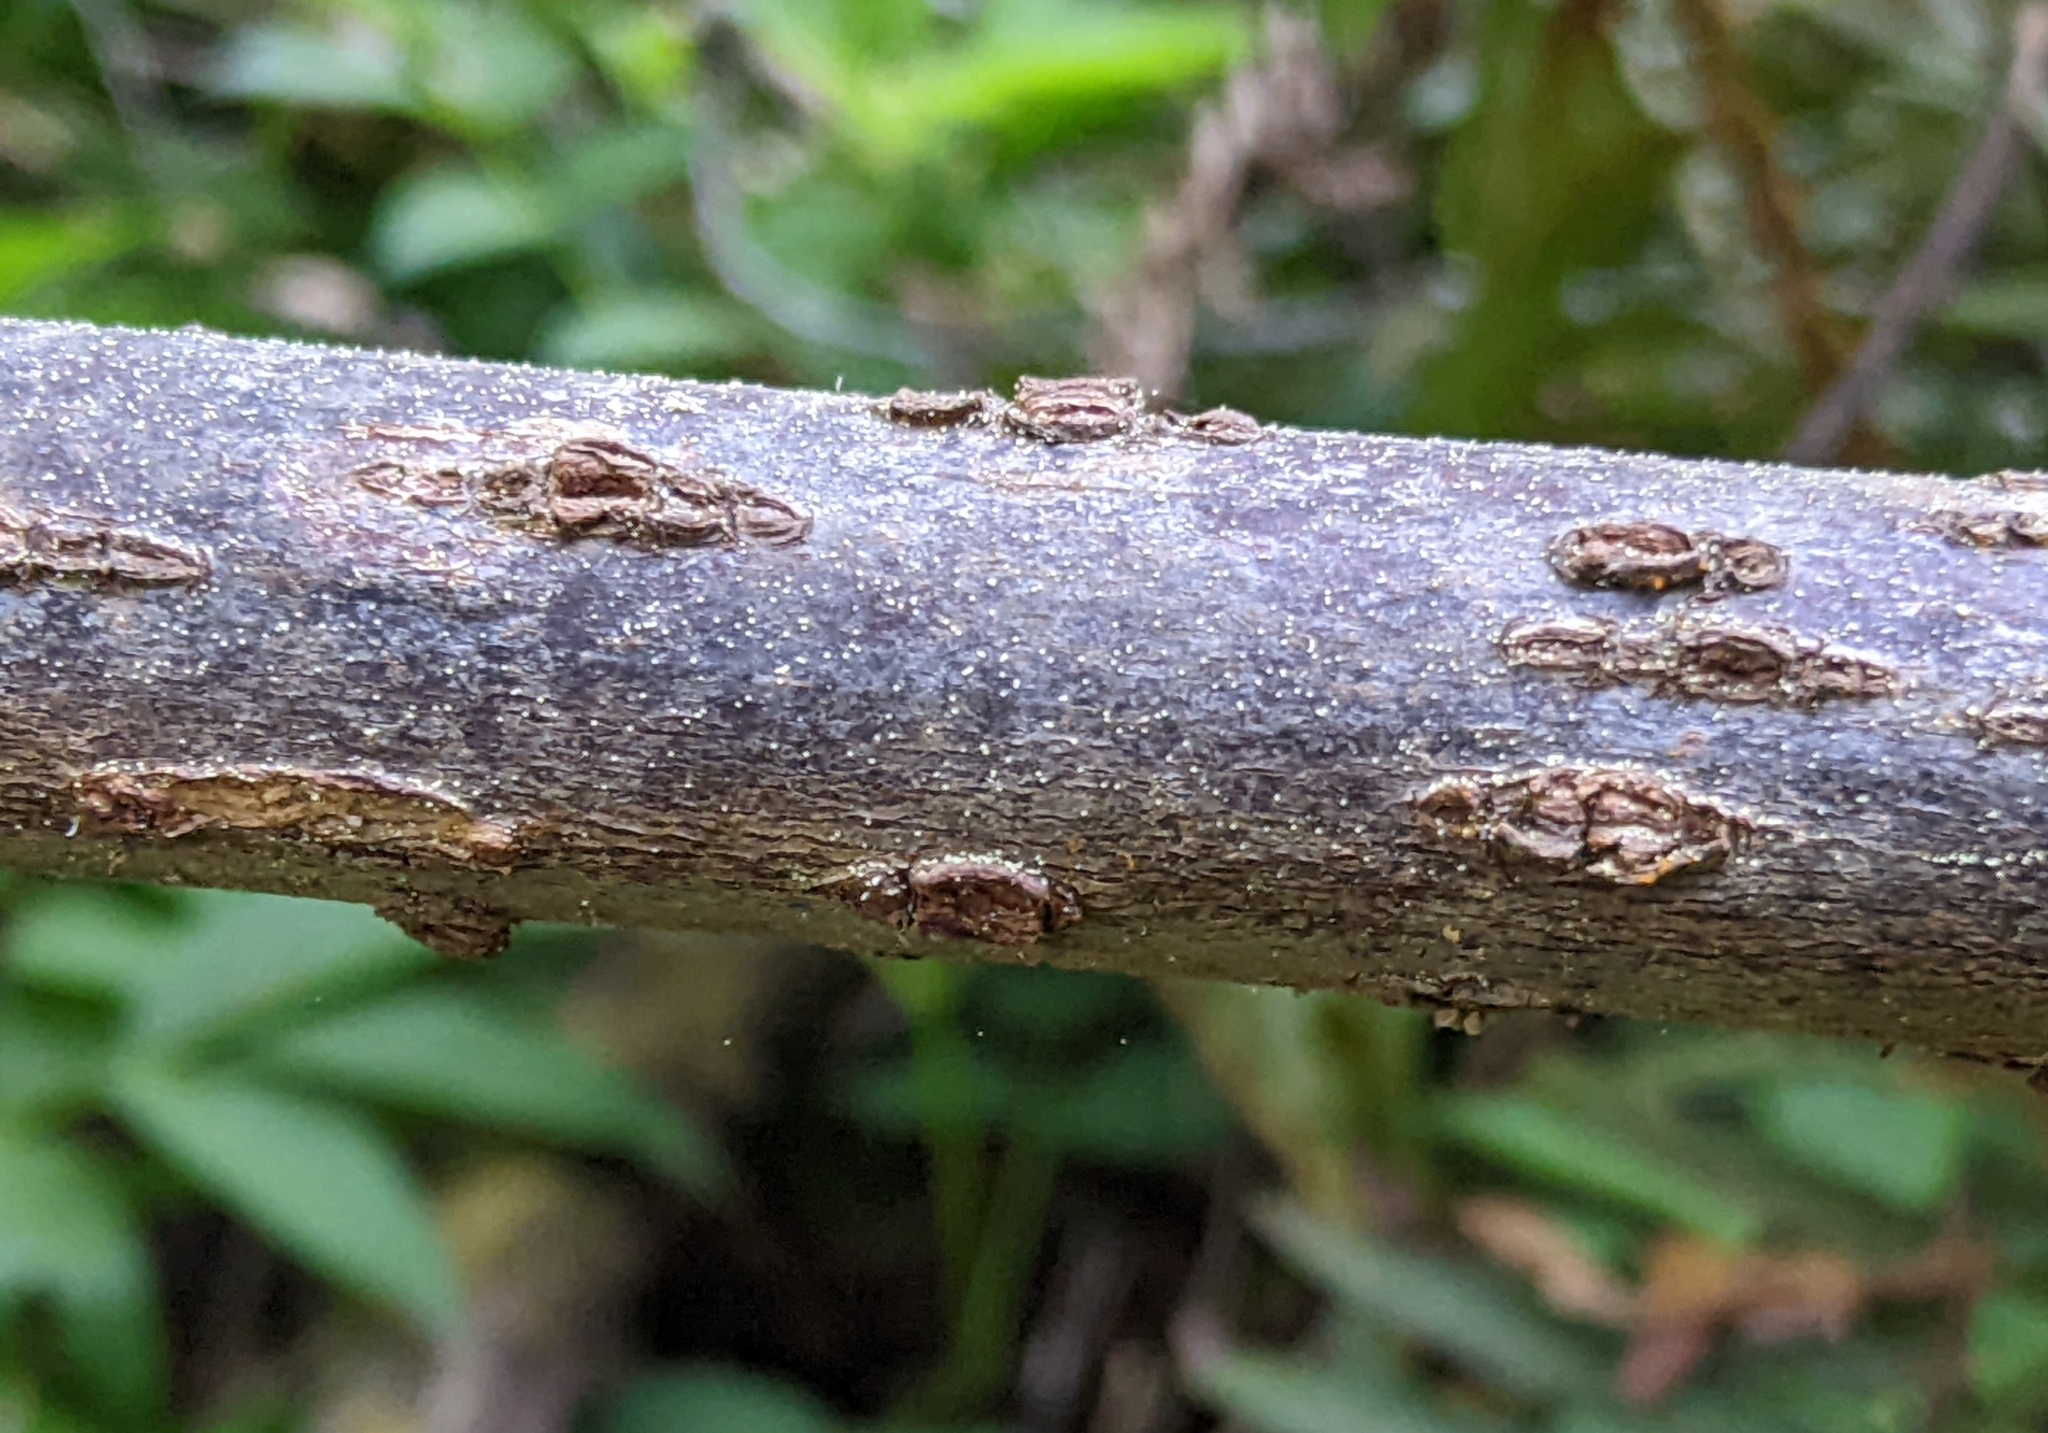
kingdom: Plantae
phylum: Tracheophyta
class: Magnoliopsida
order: Dipsacales
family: Viburnaceae
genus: Sambucus
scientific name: Sambucus racemosa
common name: Red-berried elder
